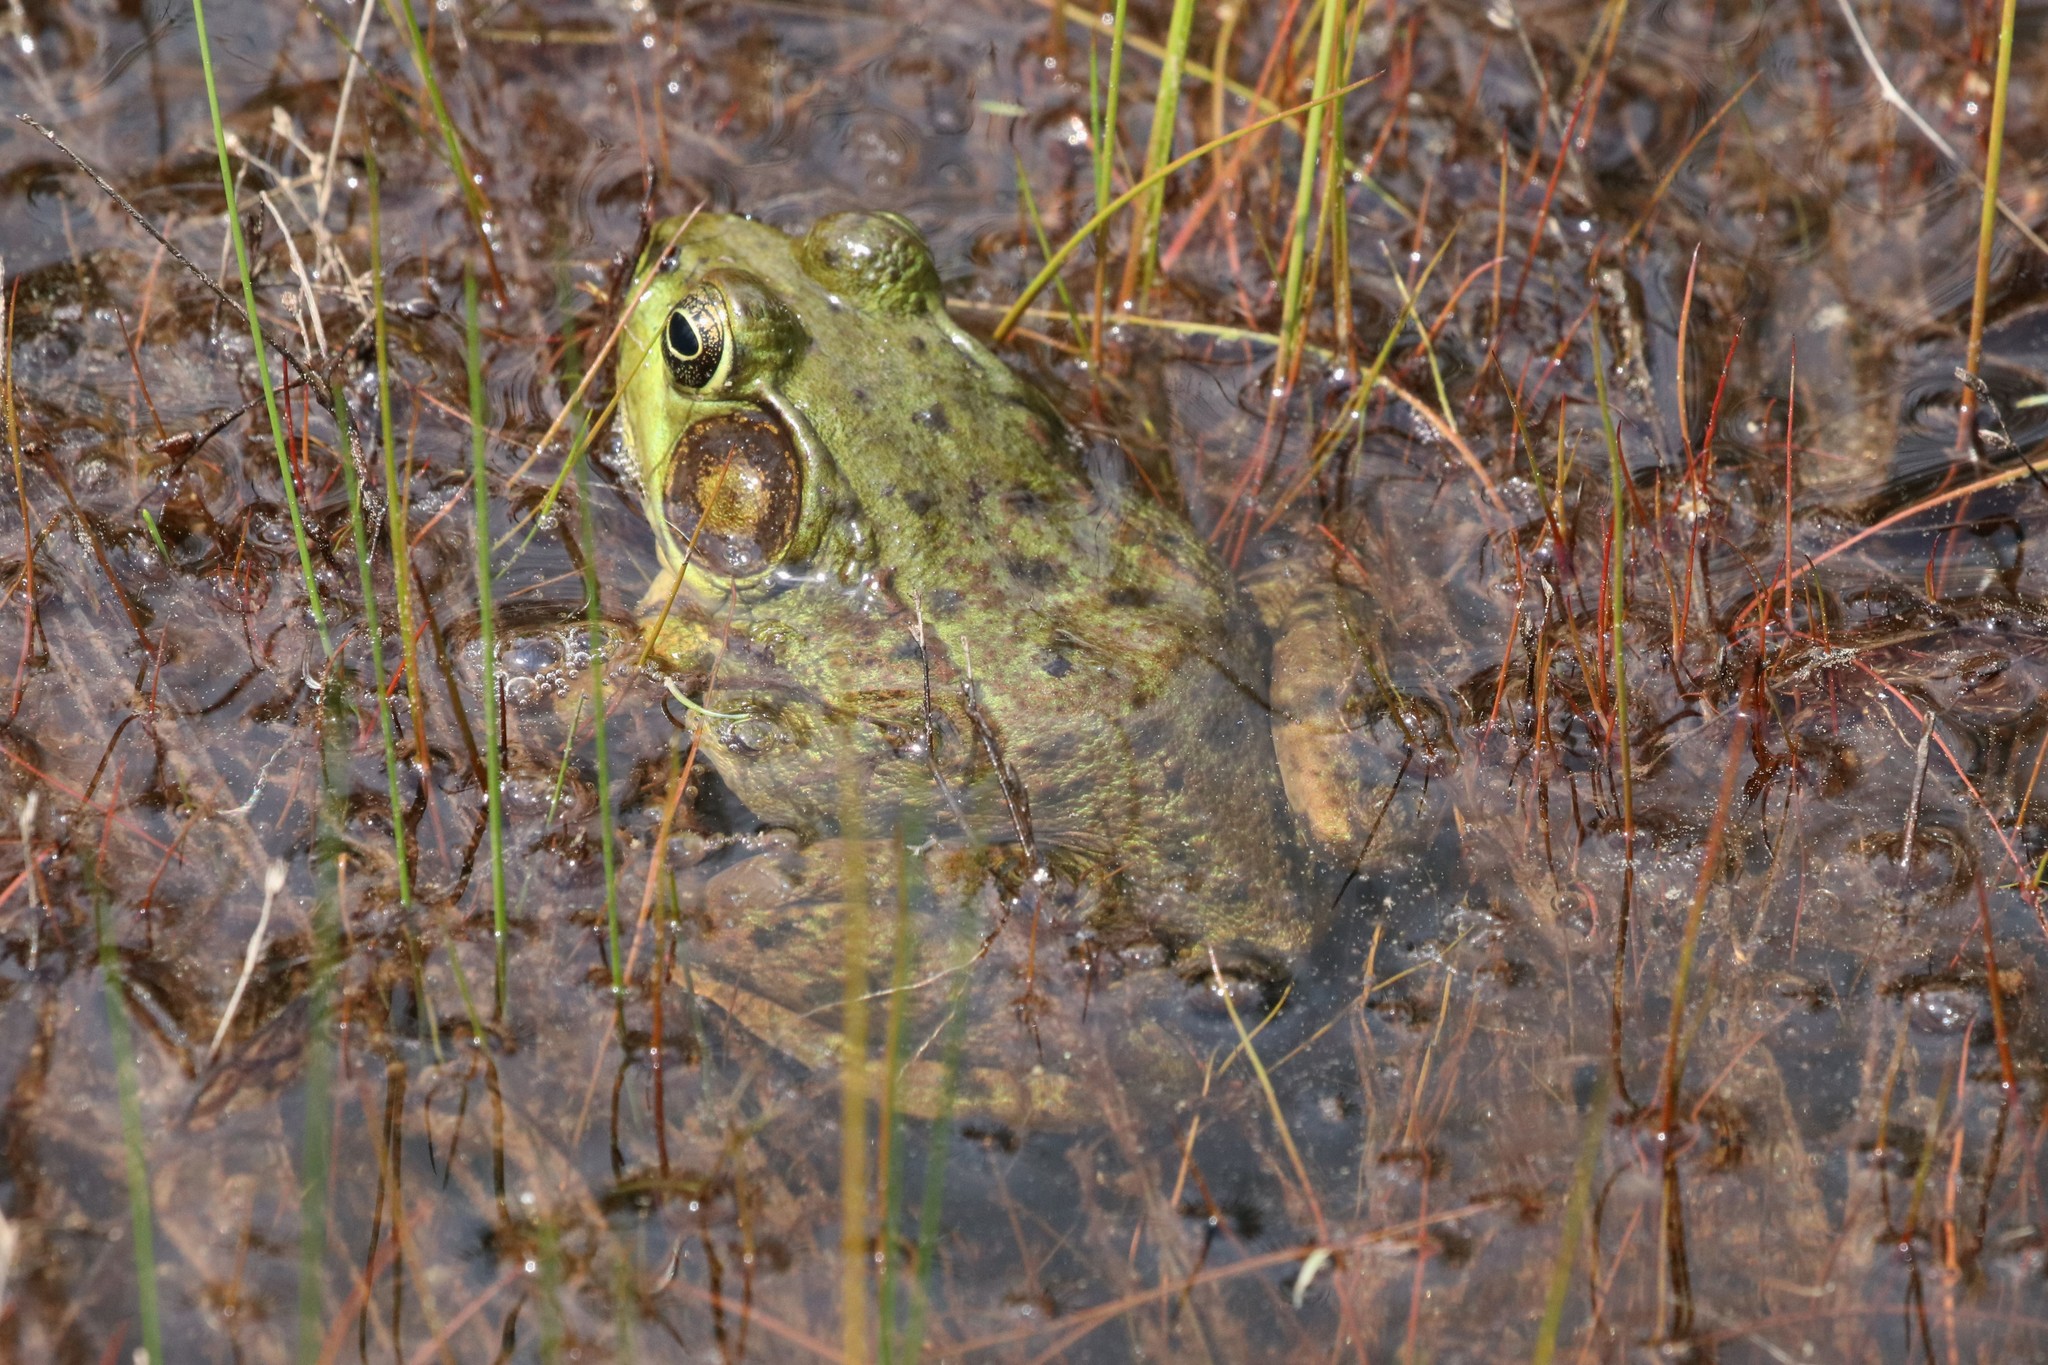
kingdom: Animalia
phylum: Chordata
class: Amphibia
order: Anura
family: Ranidae
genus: Lithobates
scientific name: Lithobates clamitans
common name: Green frog
